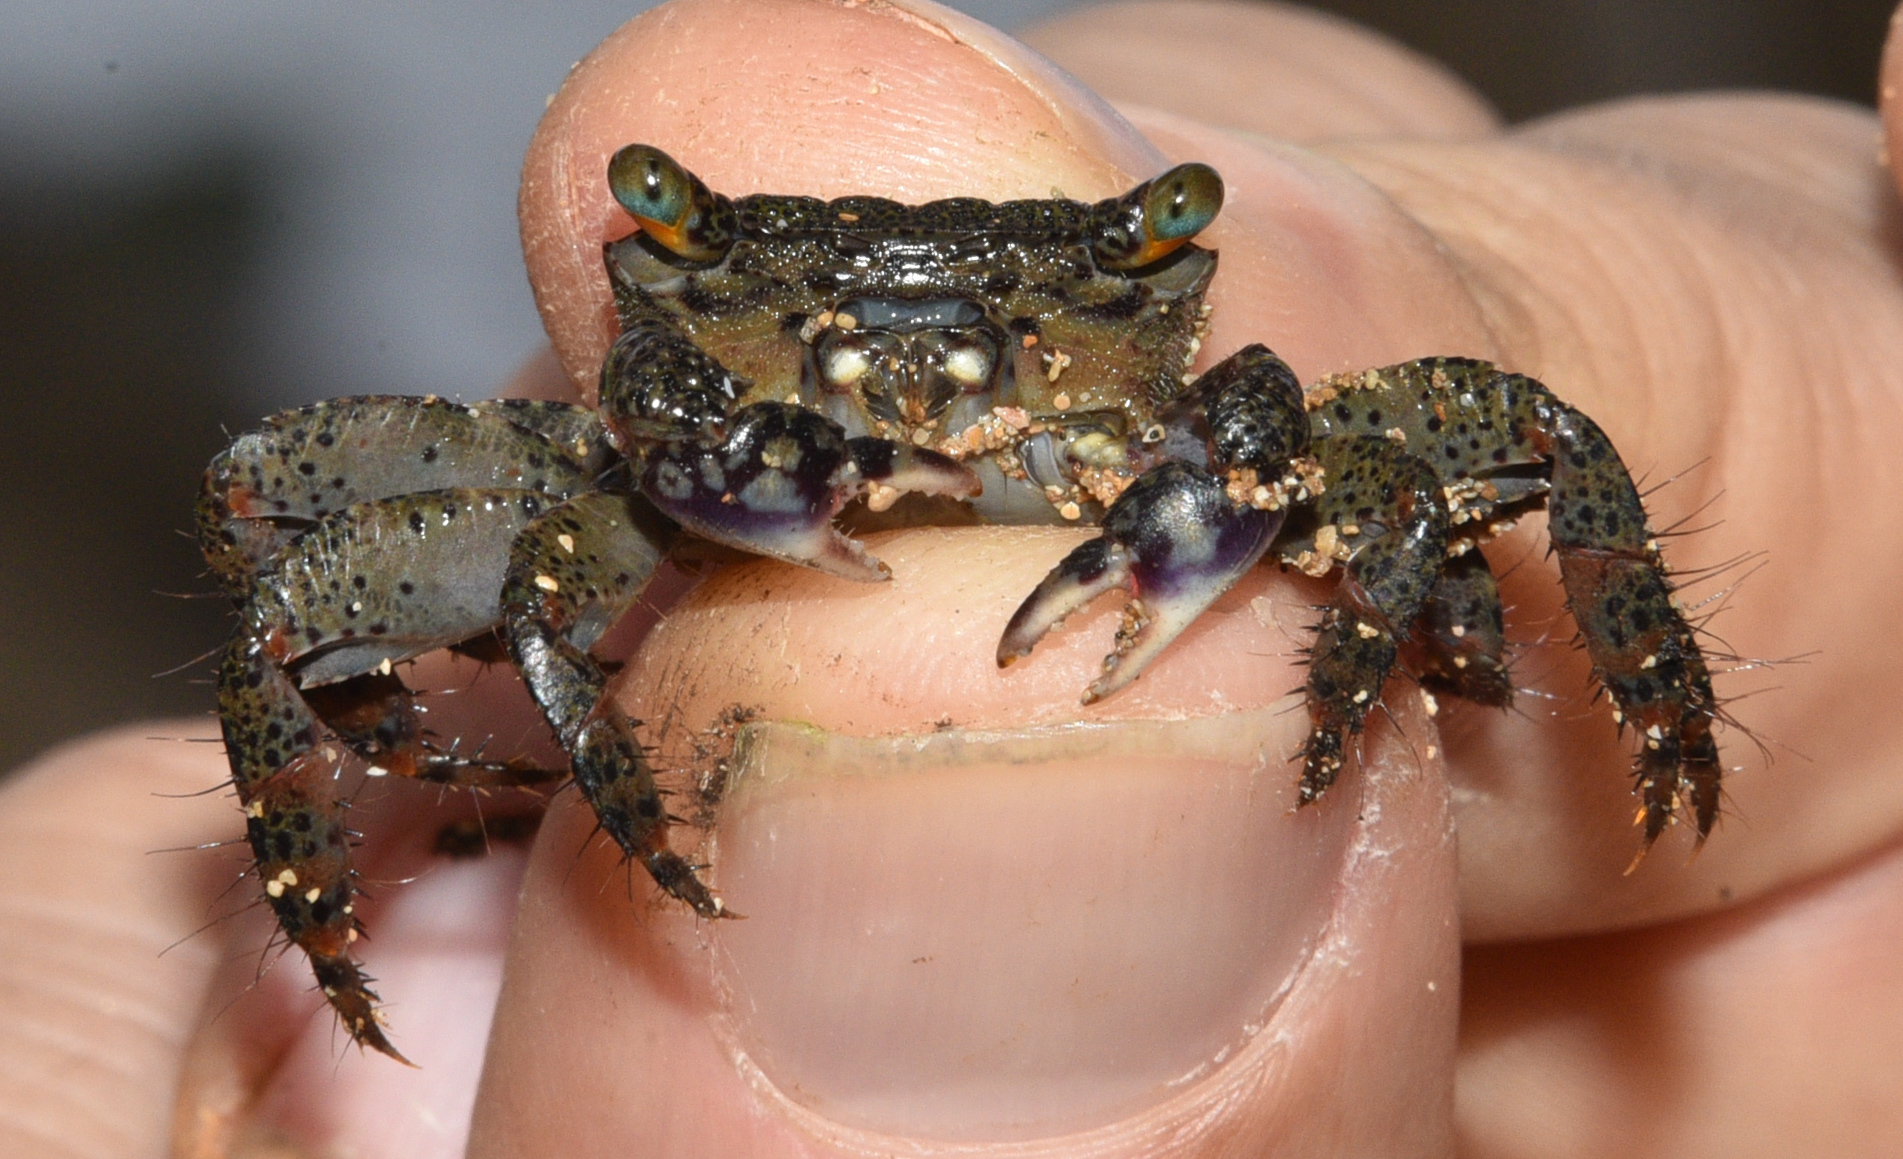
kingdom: Animalia
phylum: Arthropoda
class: Malacostraca
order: Decapoda
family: Grapsidae
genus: Metopograpsus
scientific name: Metopograpsus thukuhar
